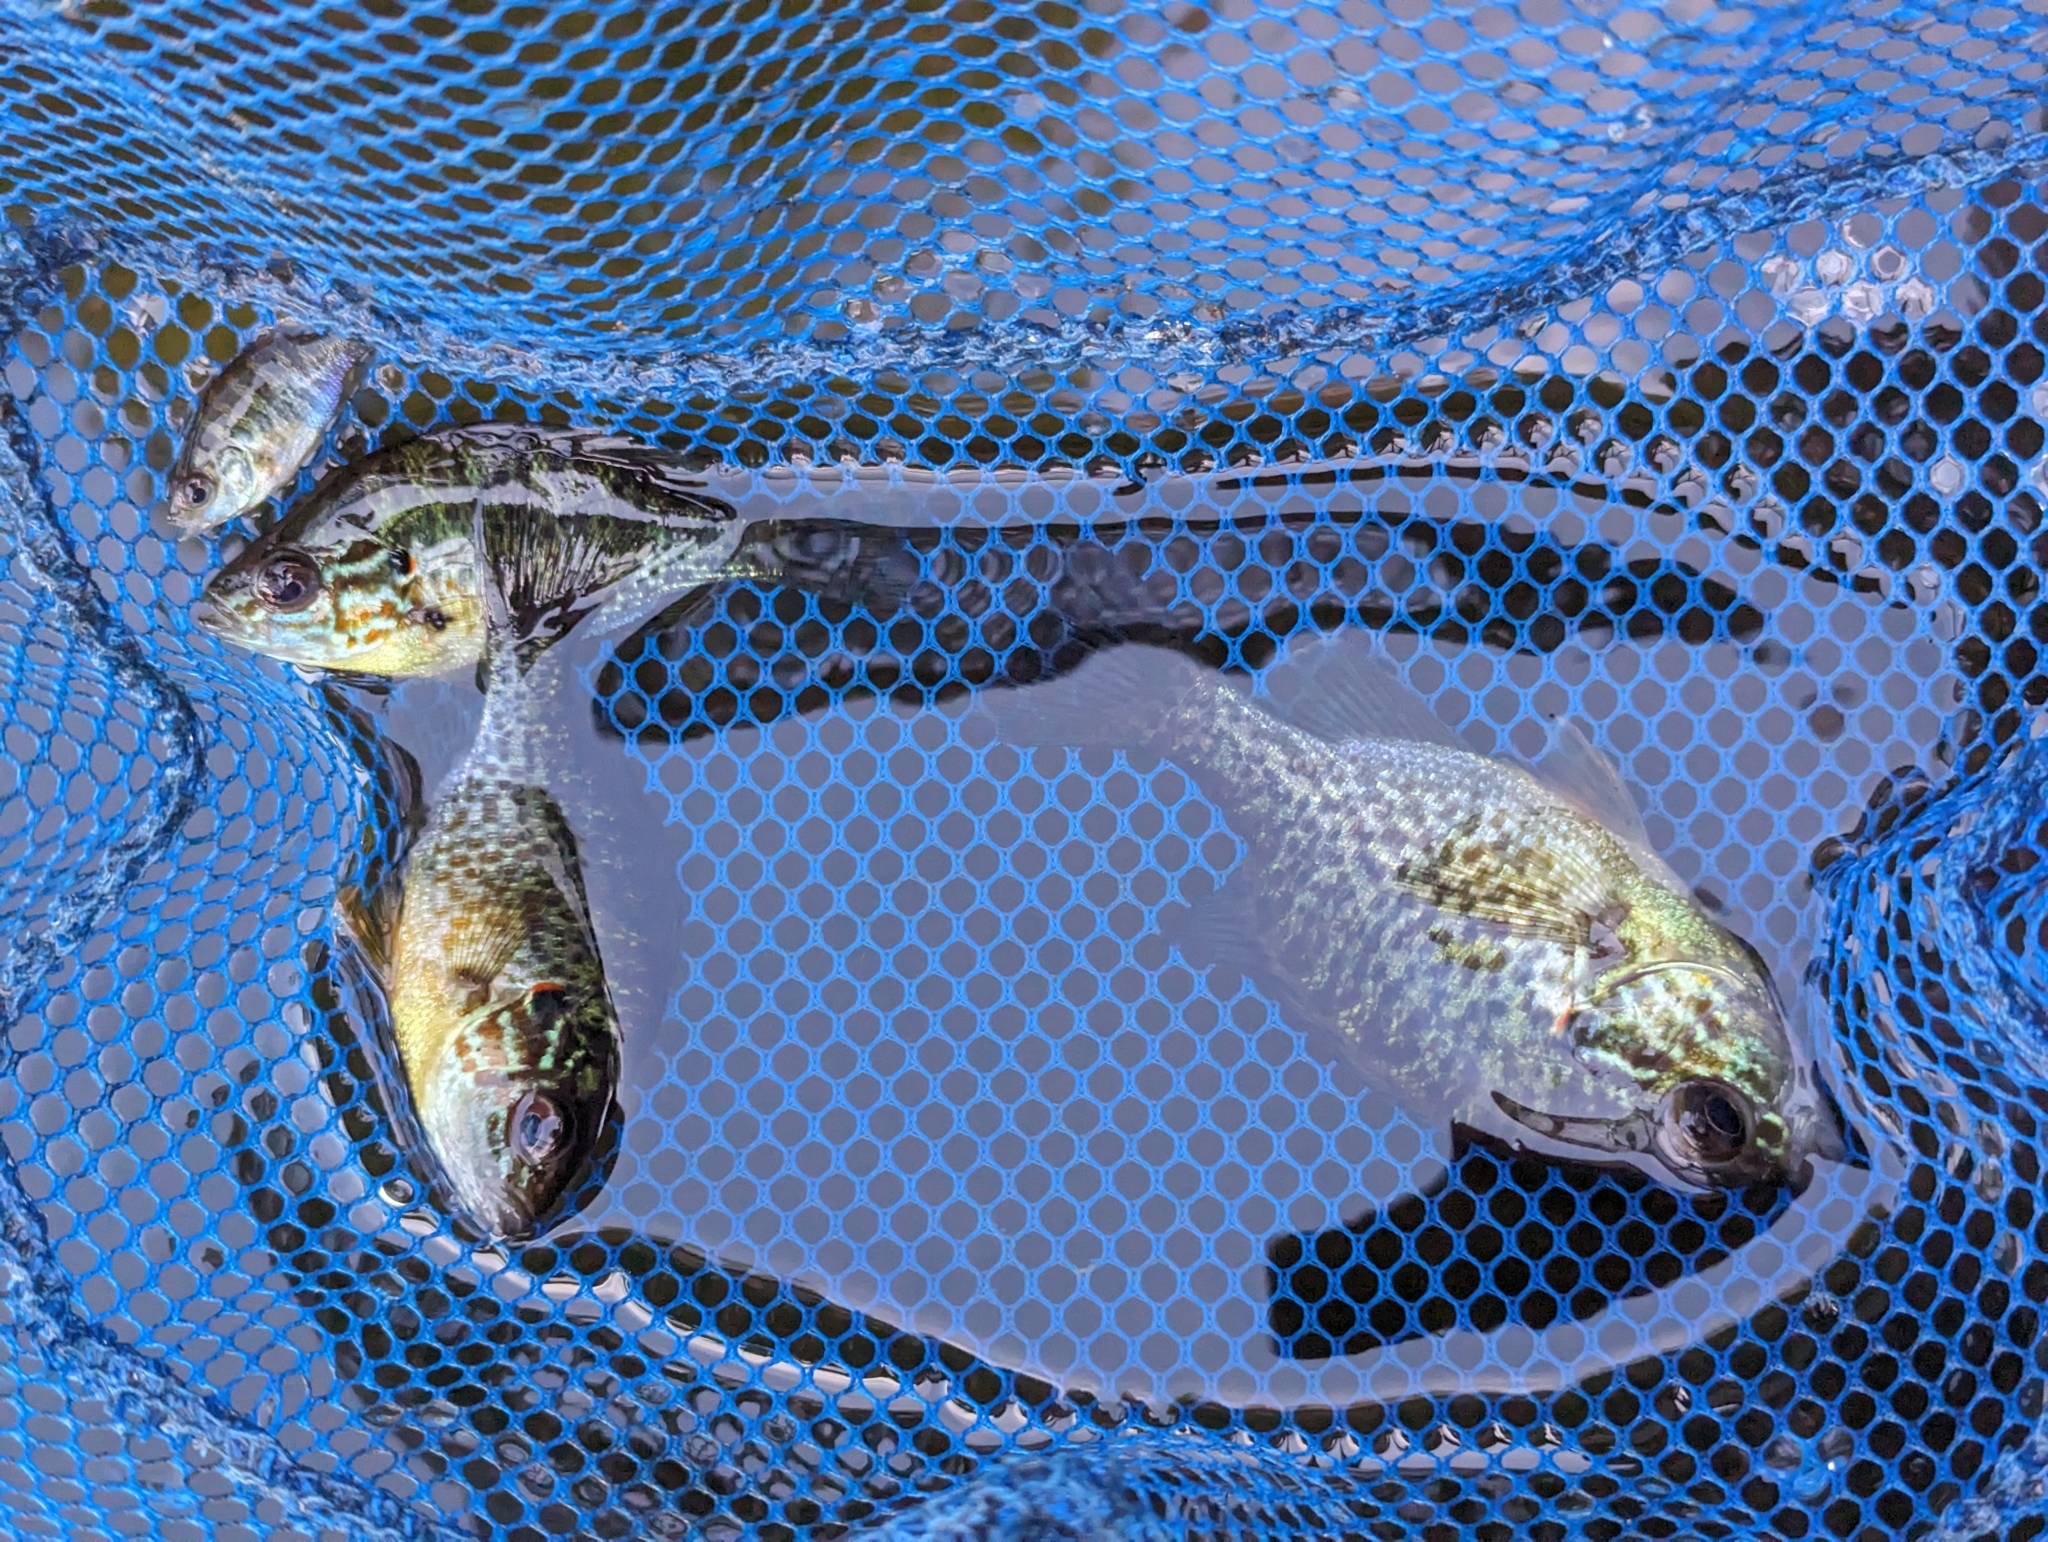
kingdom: Animalia
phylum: Chordata
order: Perciformes
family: Centrarchidae
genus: Lepomis
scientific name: Lepomis gibbosus
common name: Pumpkinseed
